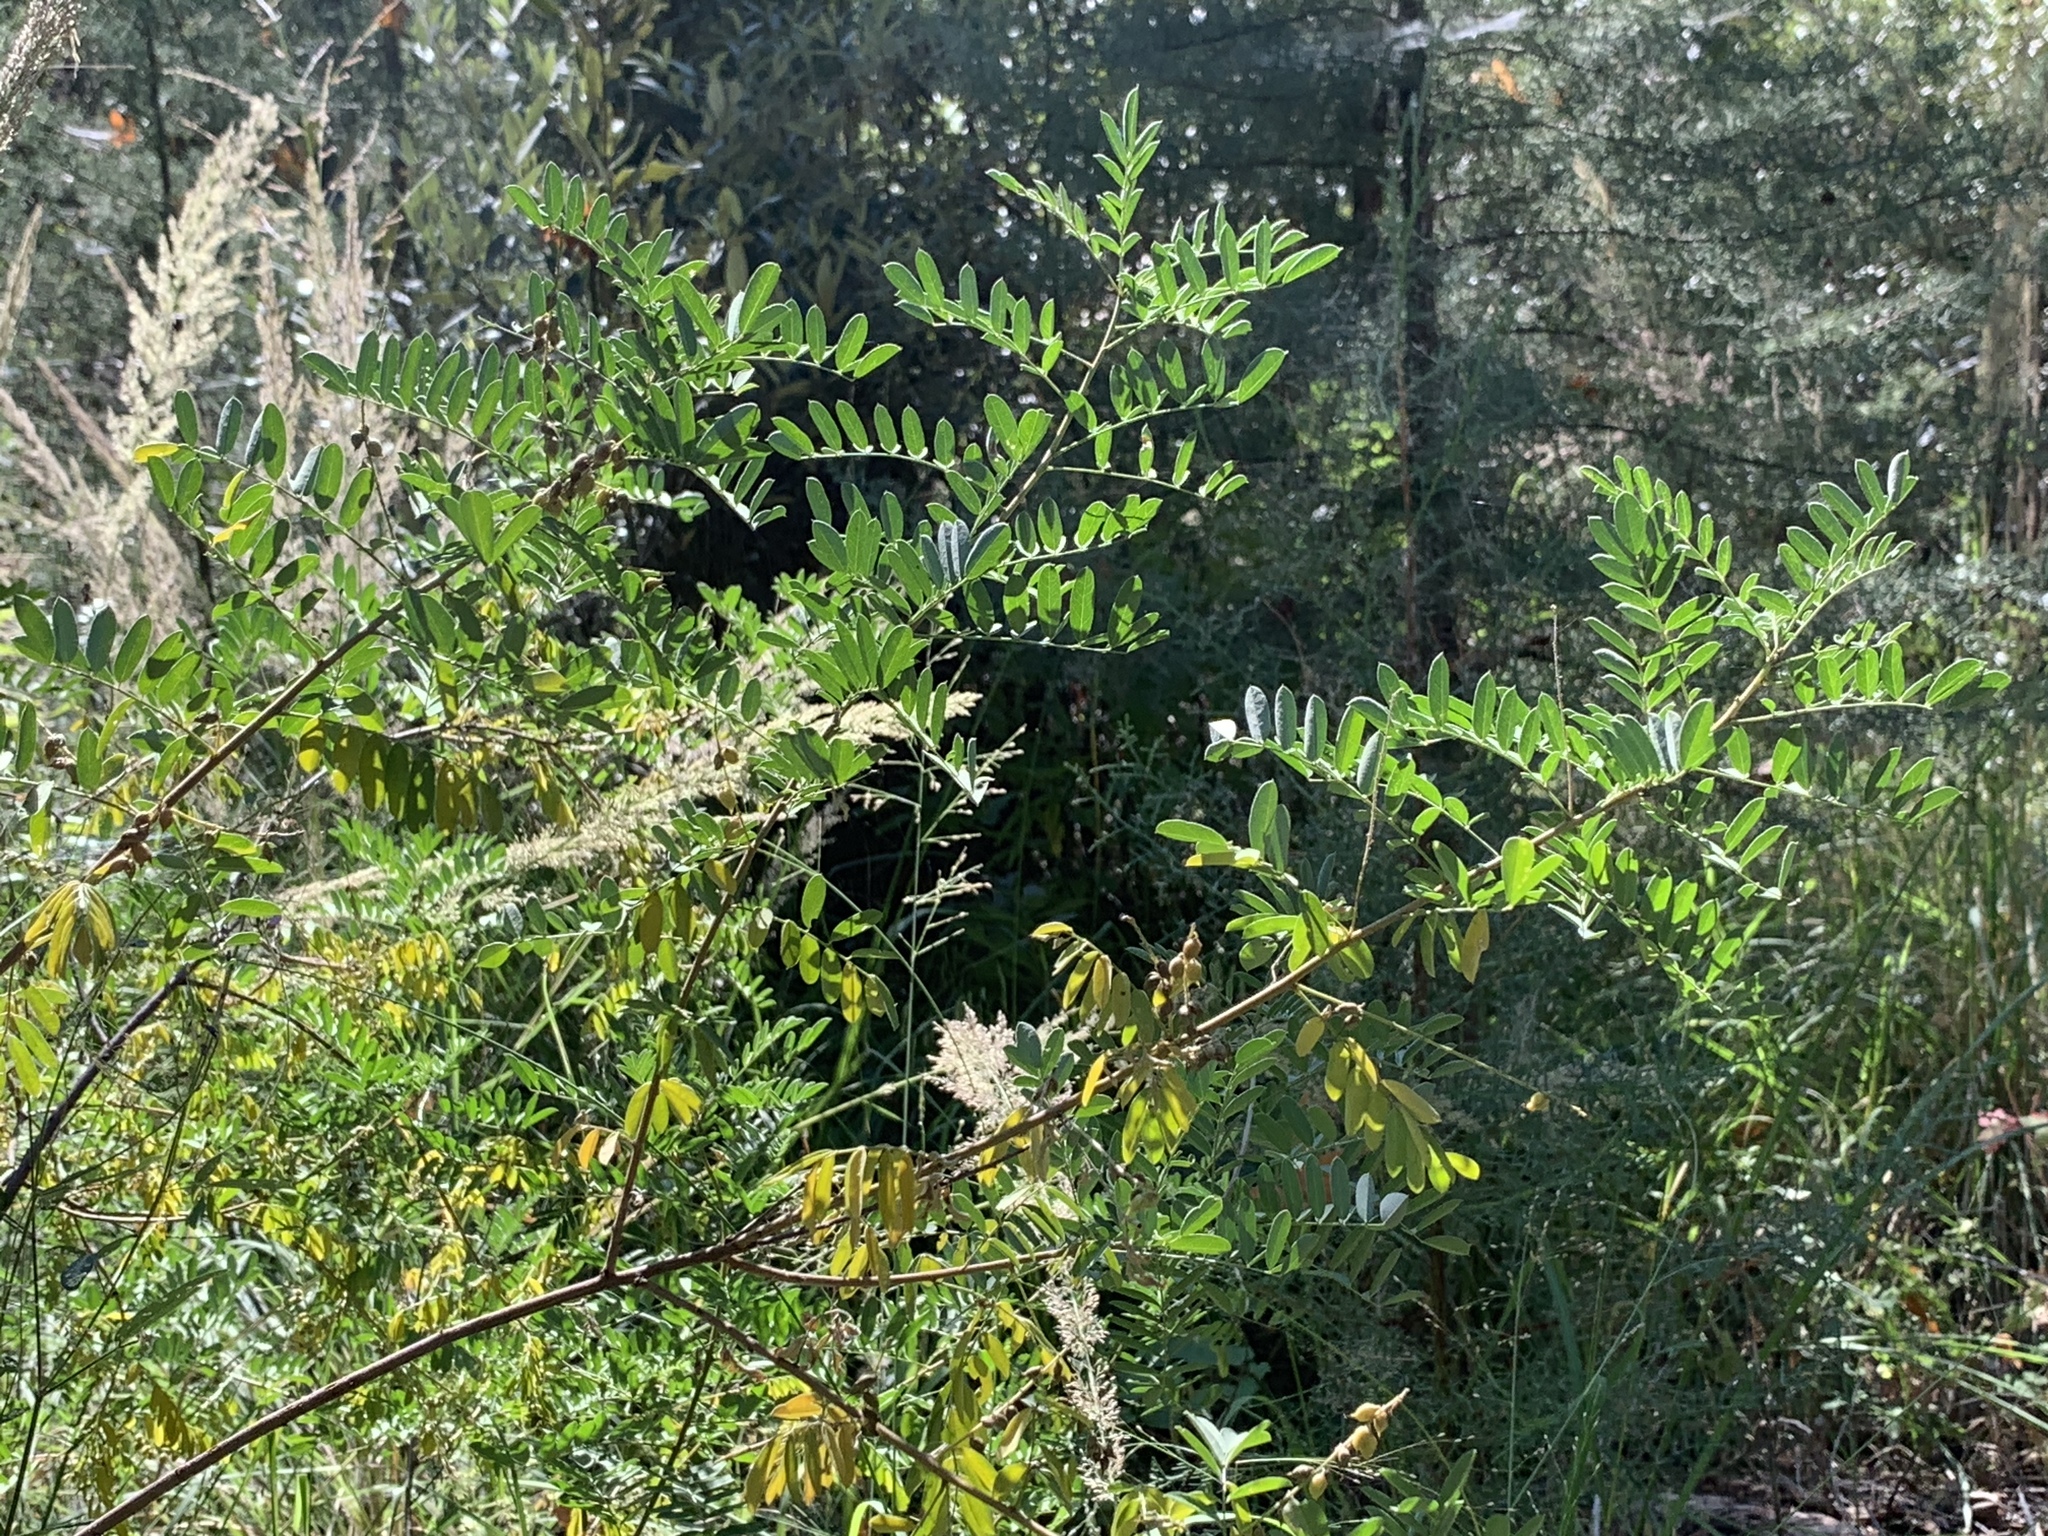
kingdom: Plantae
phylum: Tracheophyta
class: Magnoliopsida
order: Fabales
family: Fabaceae
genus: Indigofera
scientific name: Indigofera sphaerocarpa
